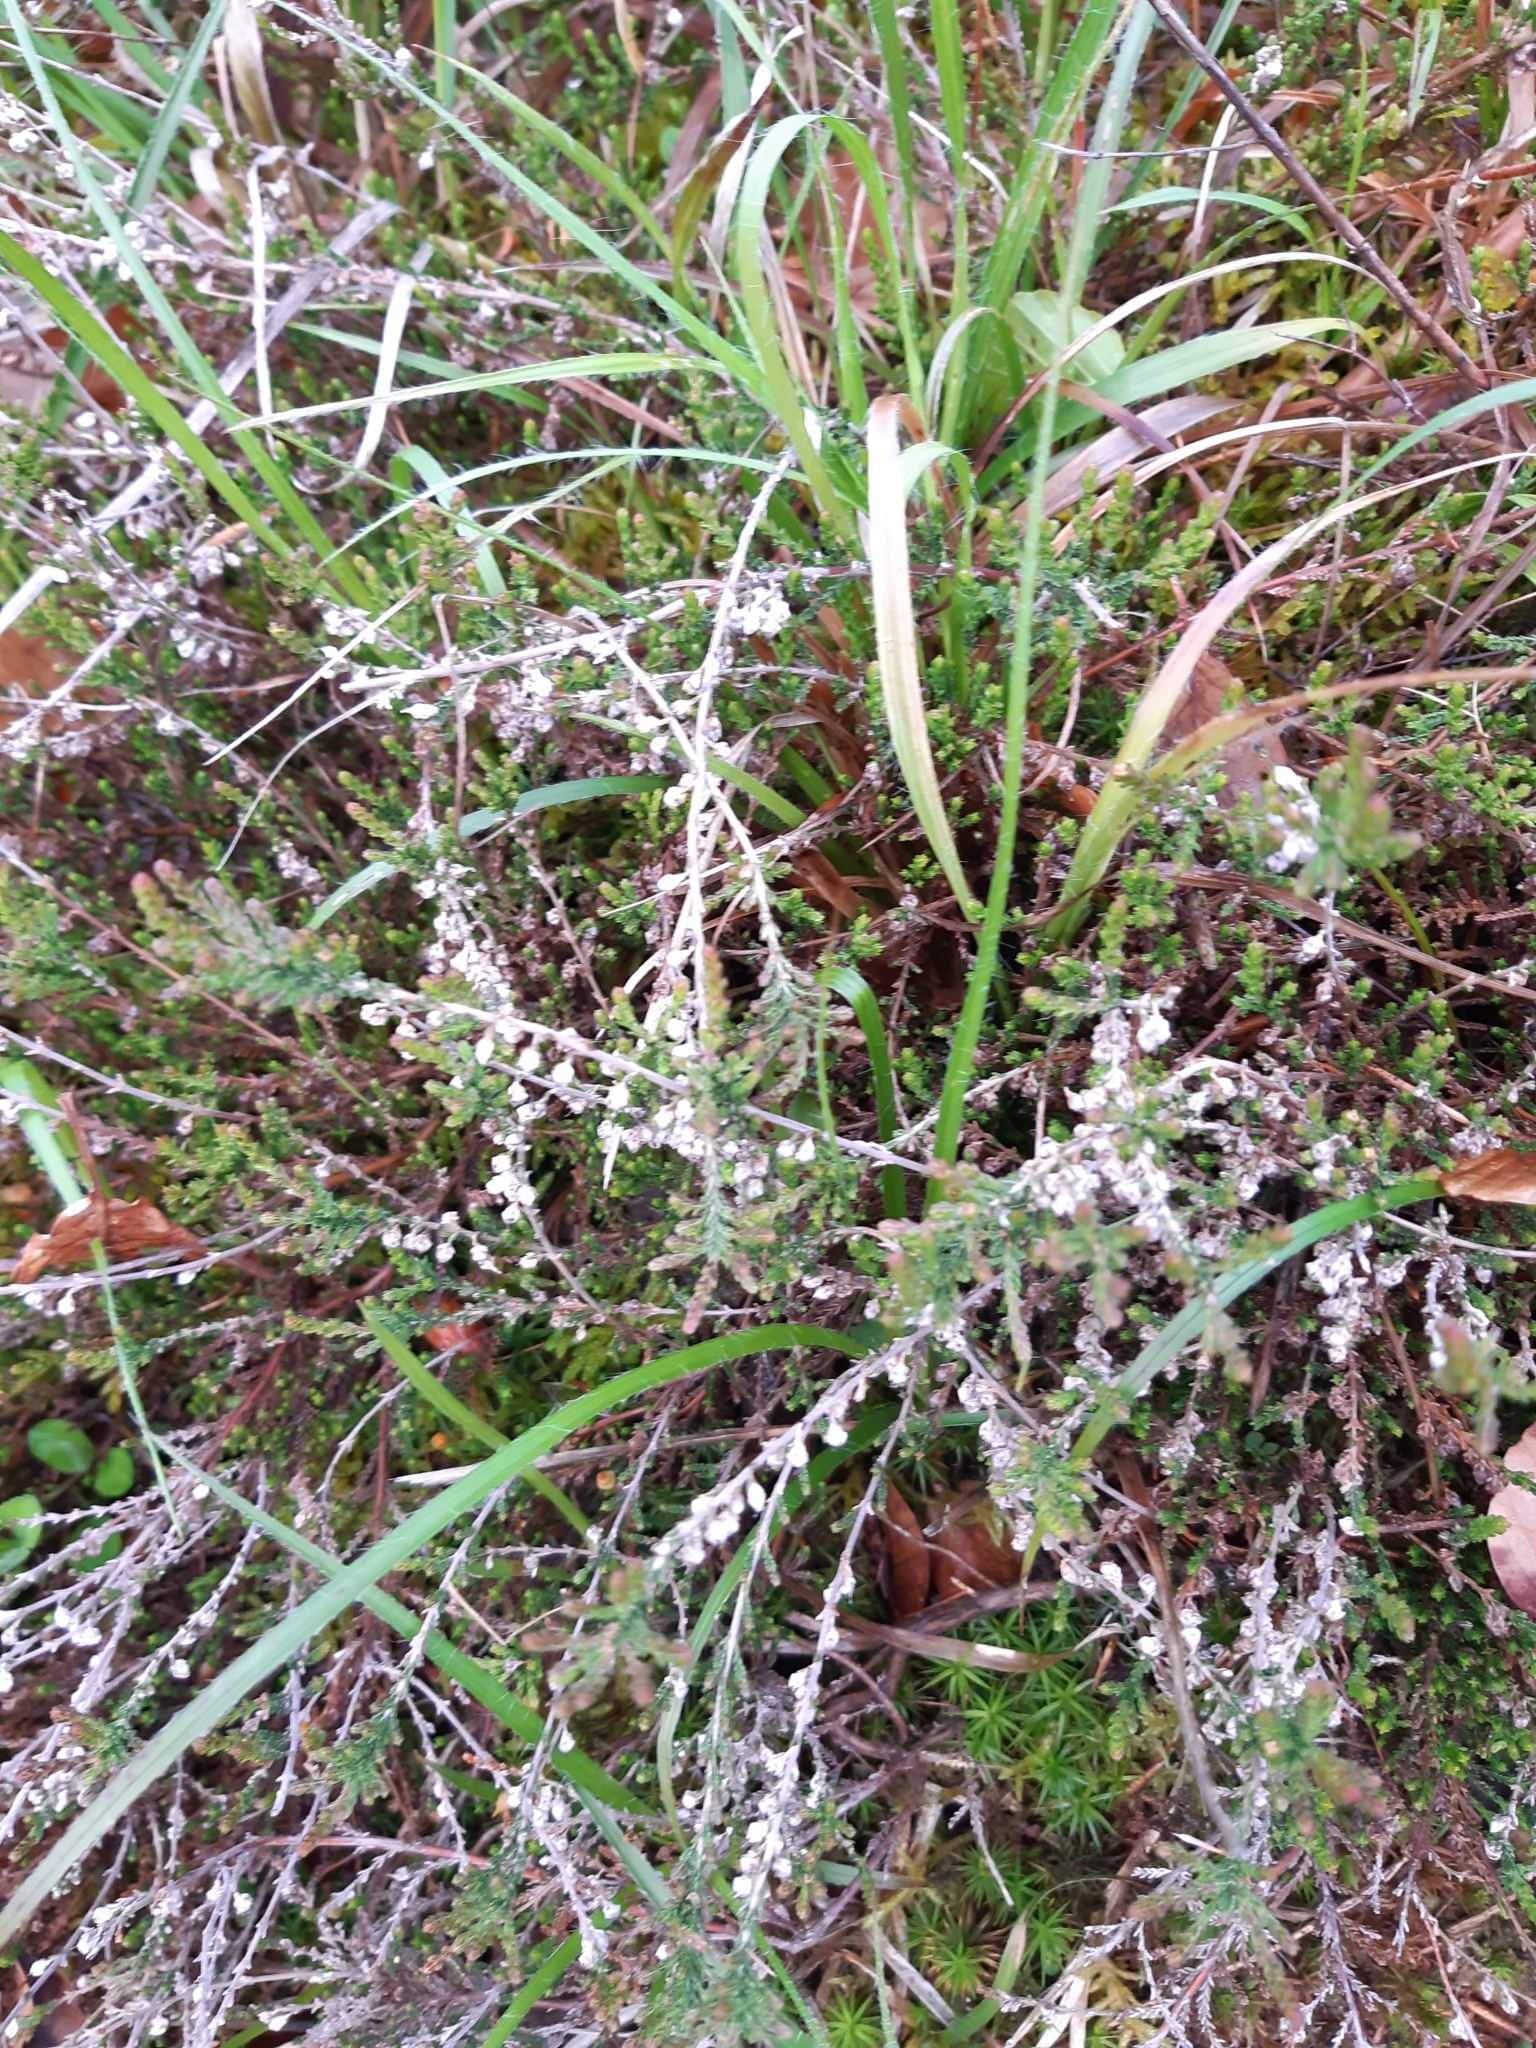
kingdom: Plantae
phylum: Tracheophyta
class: Magnoliopsida
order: Ericales
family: Ericaceae
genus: Calluna
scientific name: Calluna vulgaris
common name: Heather
